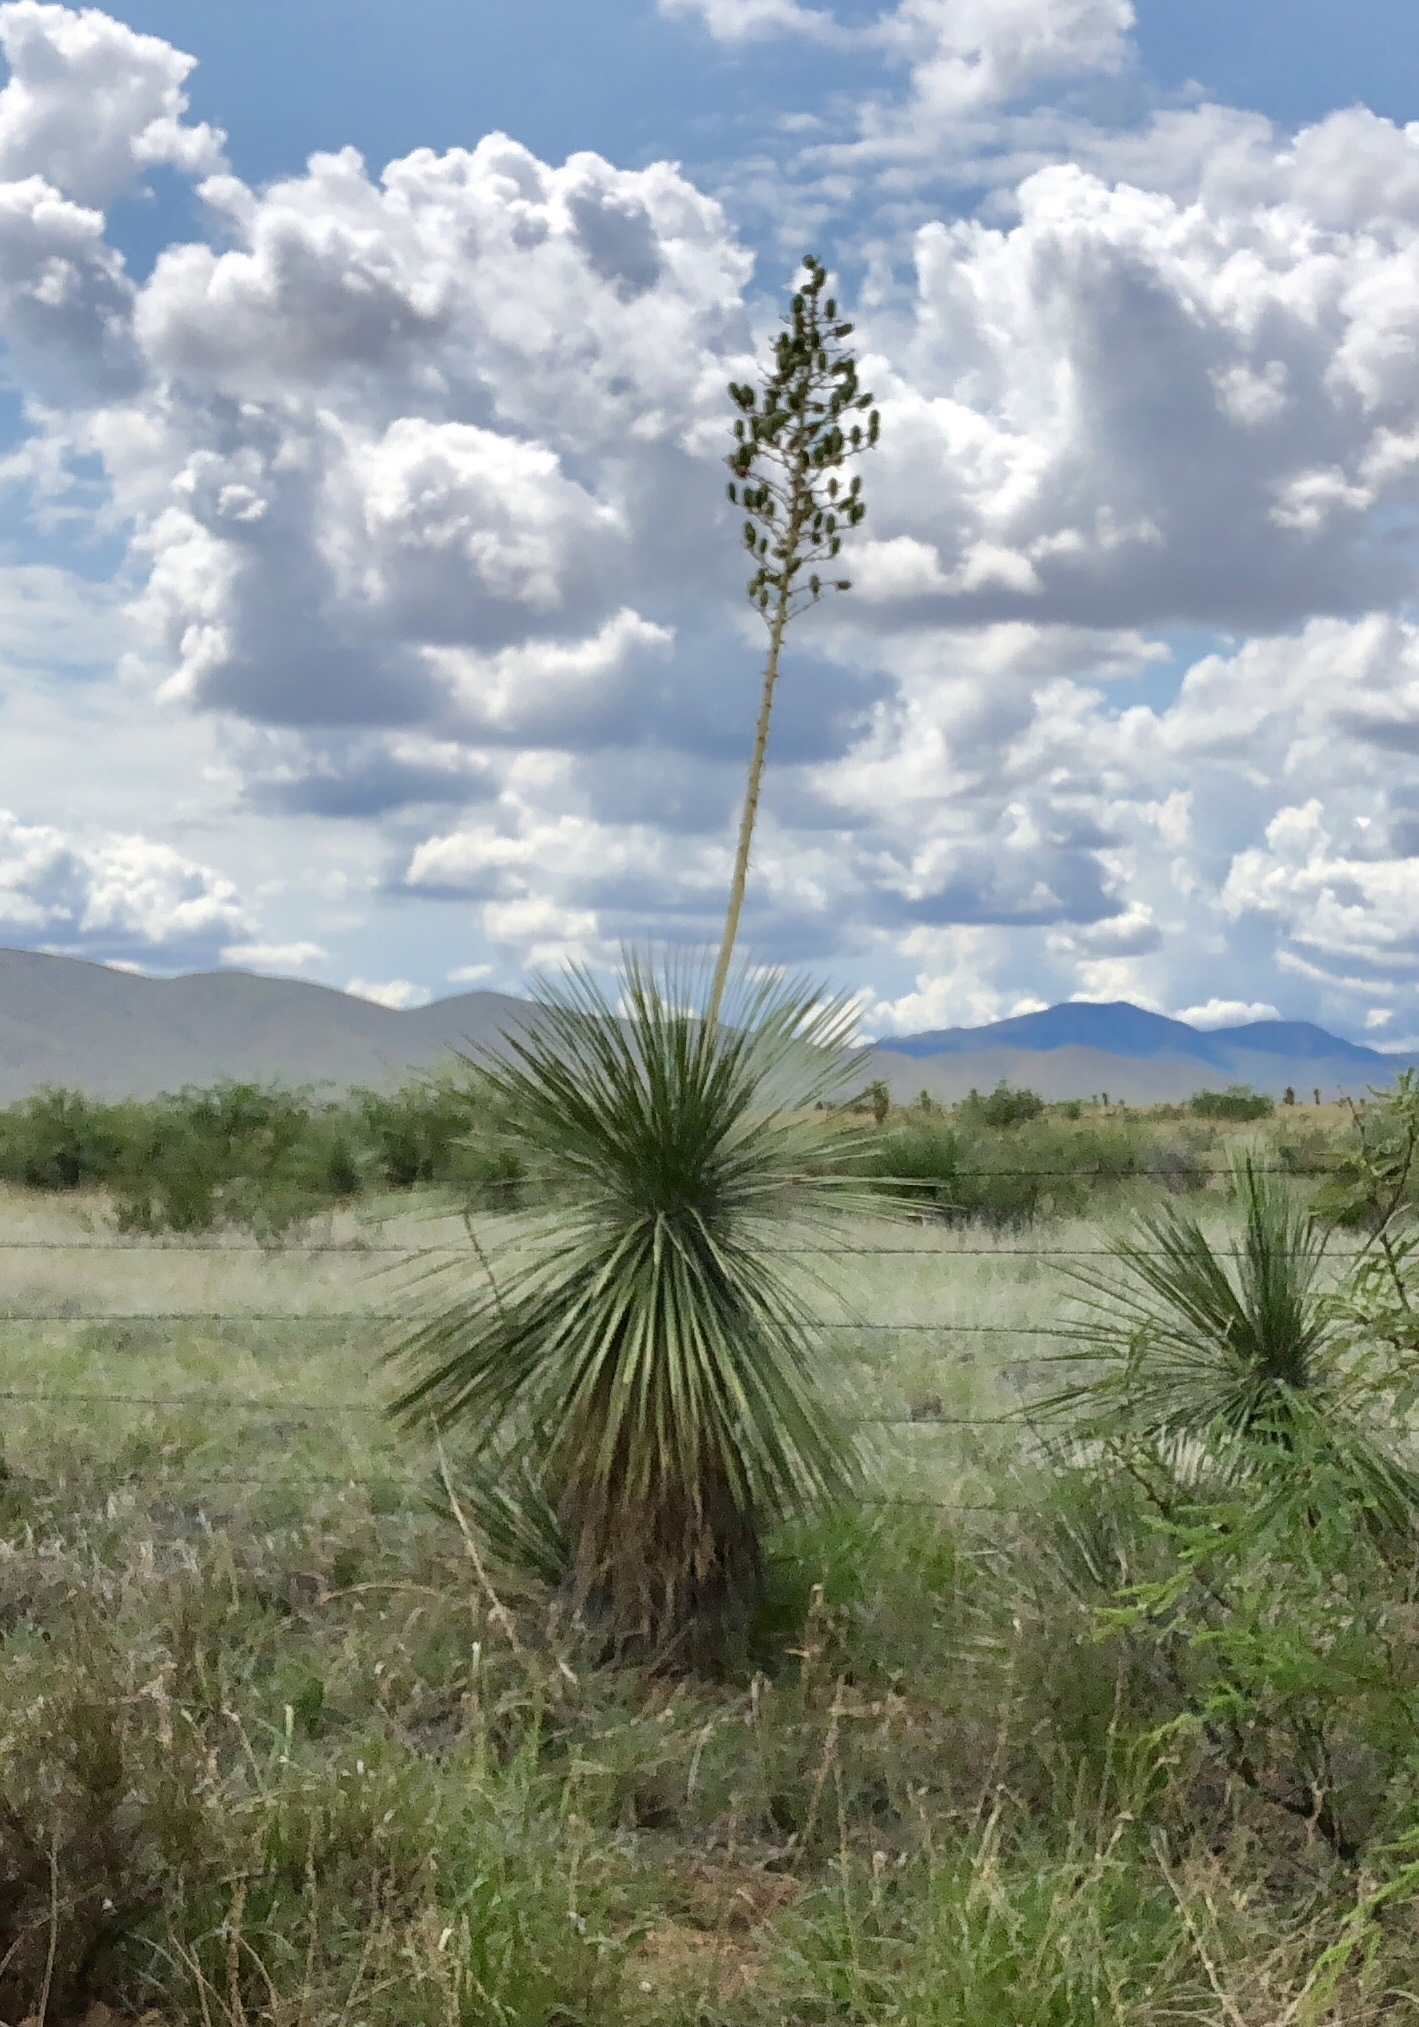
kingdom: Plantae
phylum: Tracheophyta
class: Liliopsida
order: Asparagales
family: Asparagaceae
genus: Yucca
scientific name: Yucca elata
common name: Palmella
